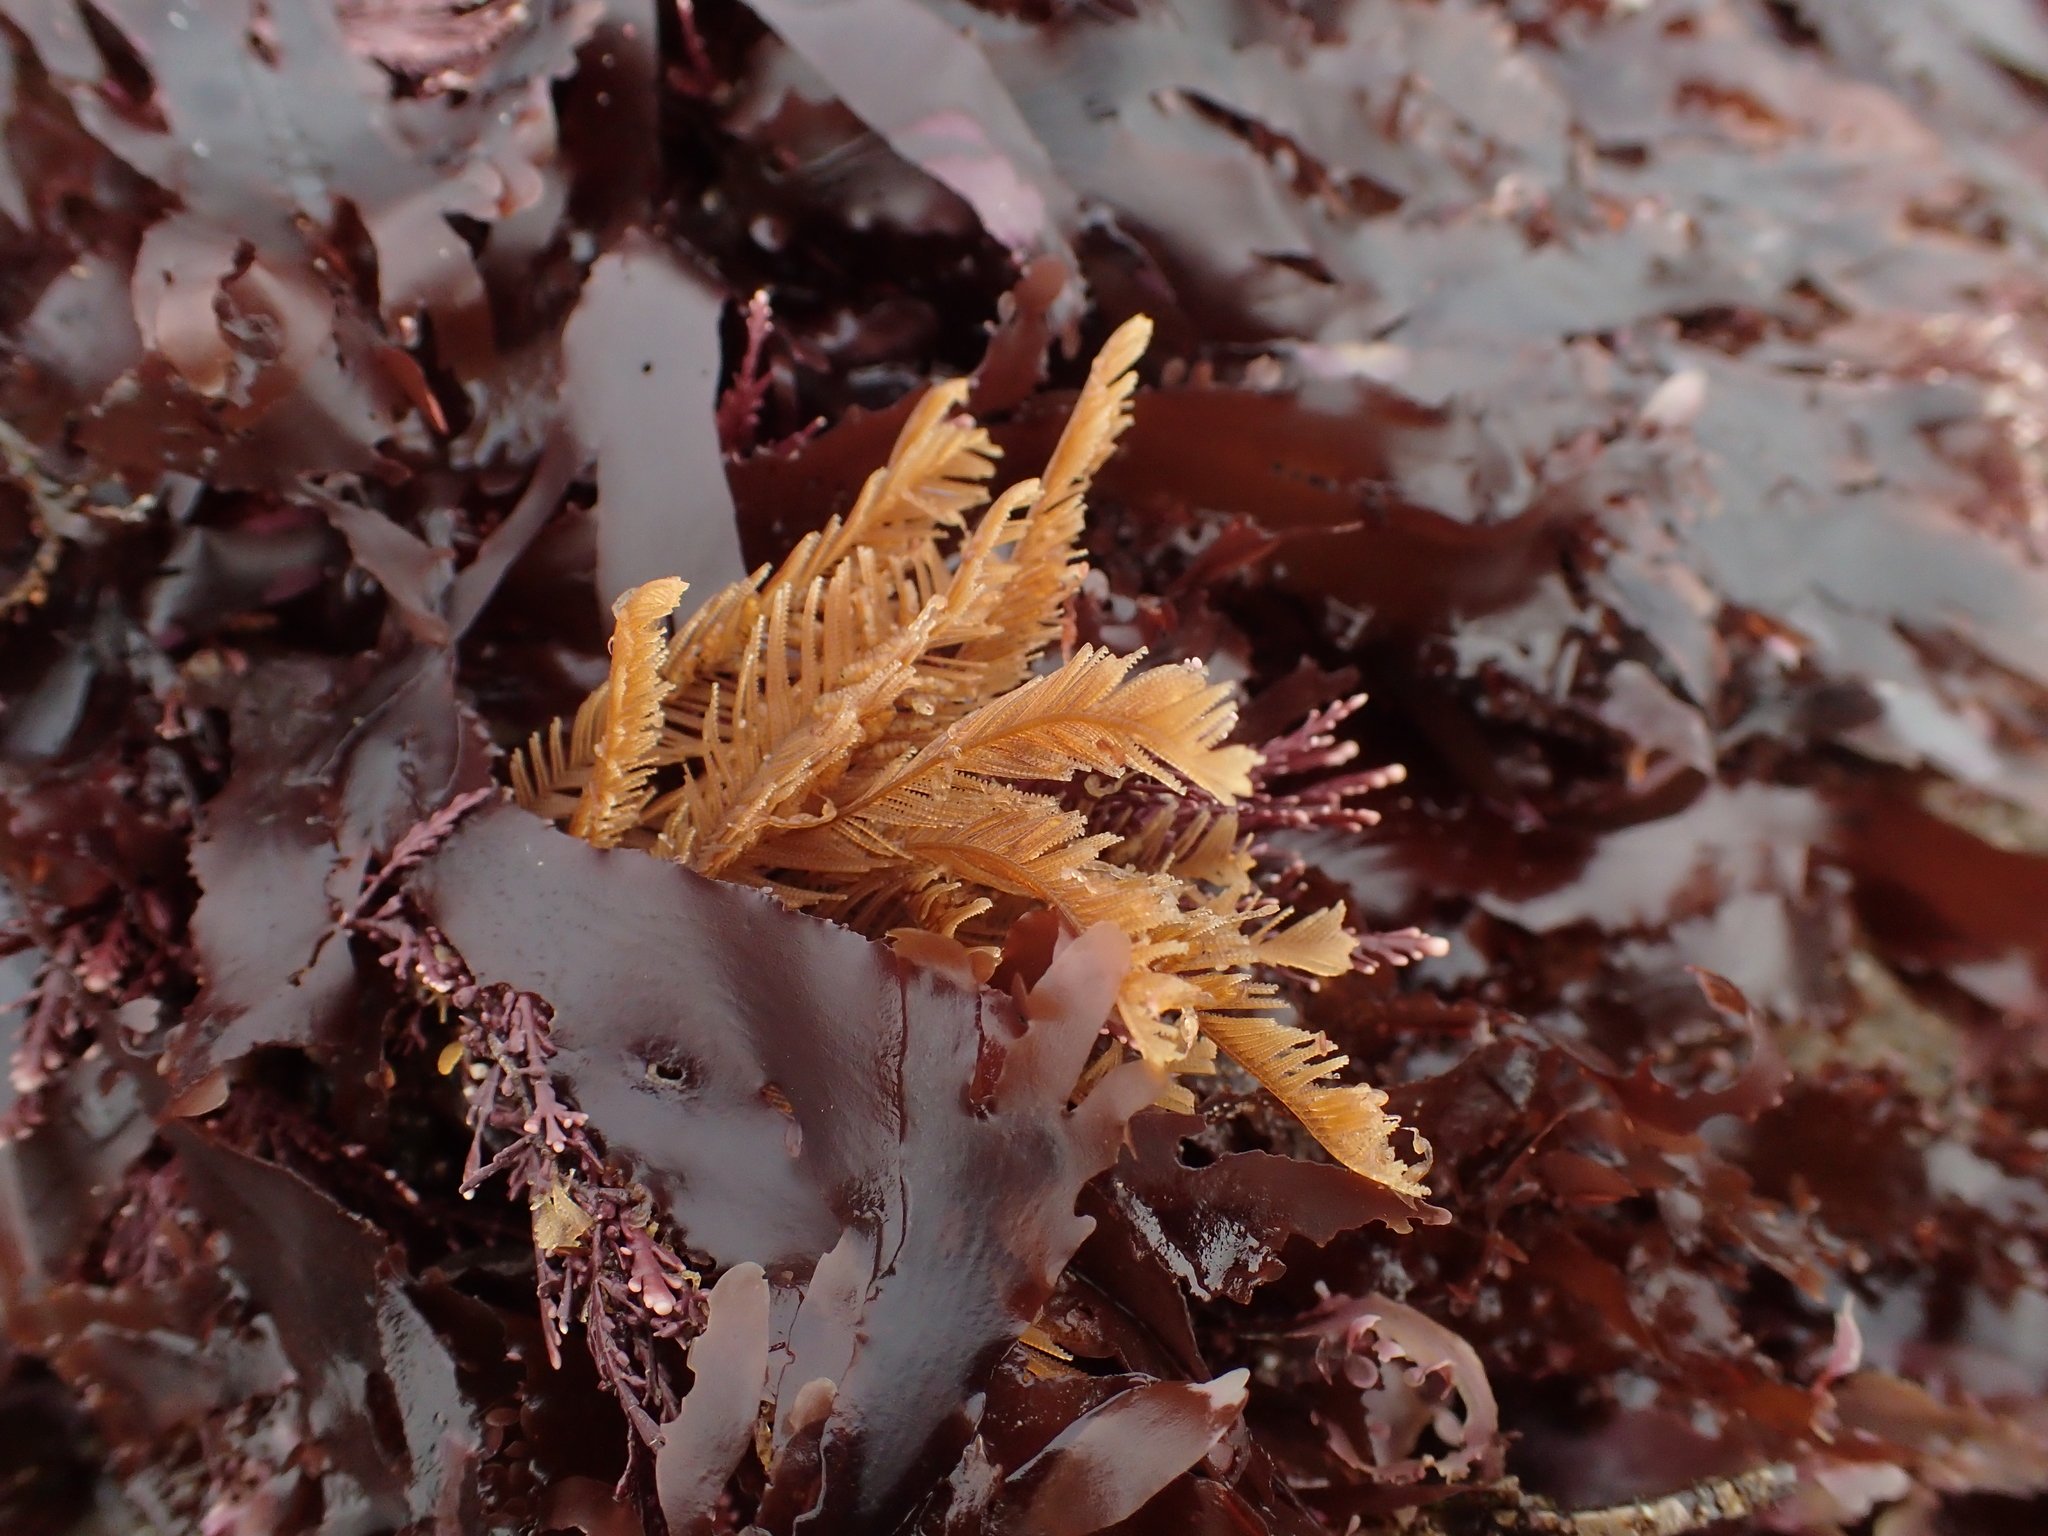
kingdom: Animalia
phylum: Cnidaria
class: Hydrozoa
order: Leptothecata
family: Aglaopheniidae
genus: Aglaophenia
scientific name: Aglaophenia struthionides
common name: Ostrichplume hydroid
